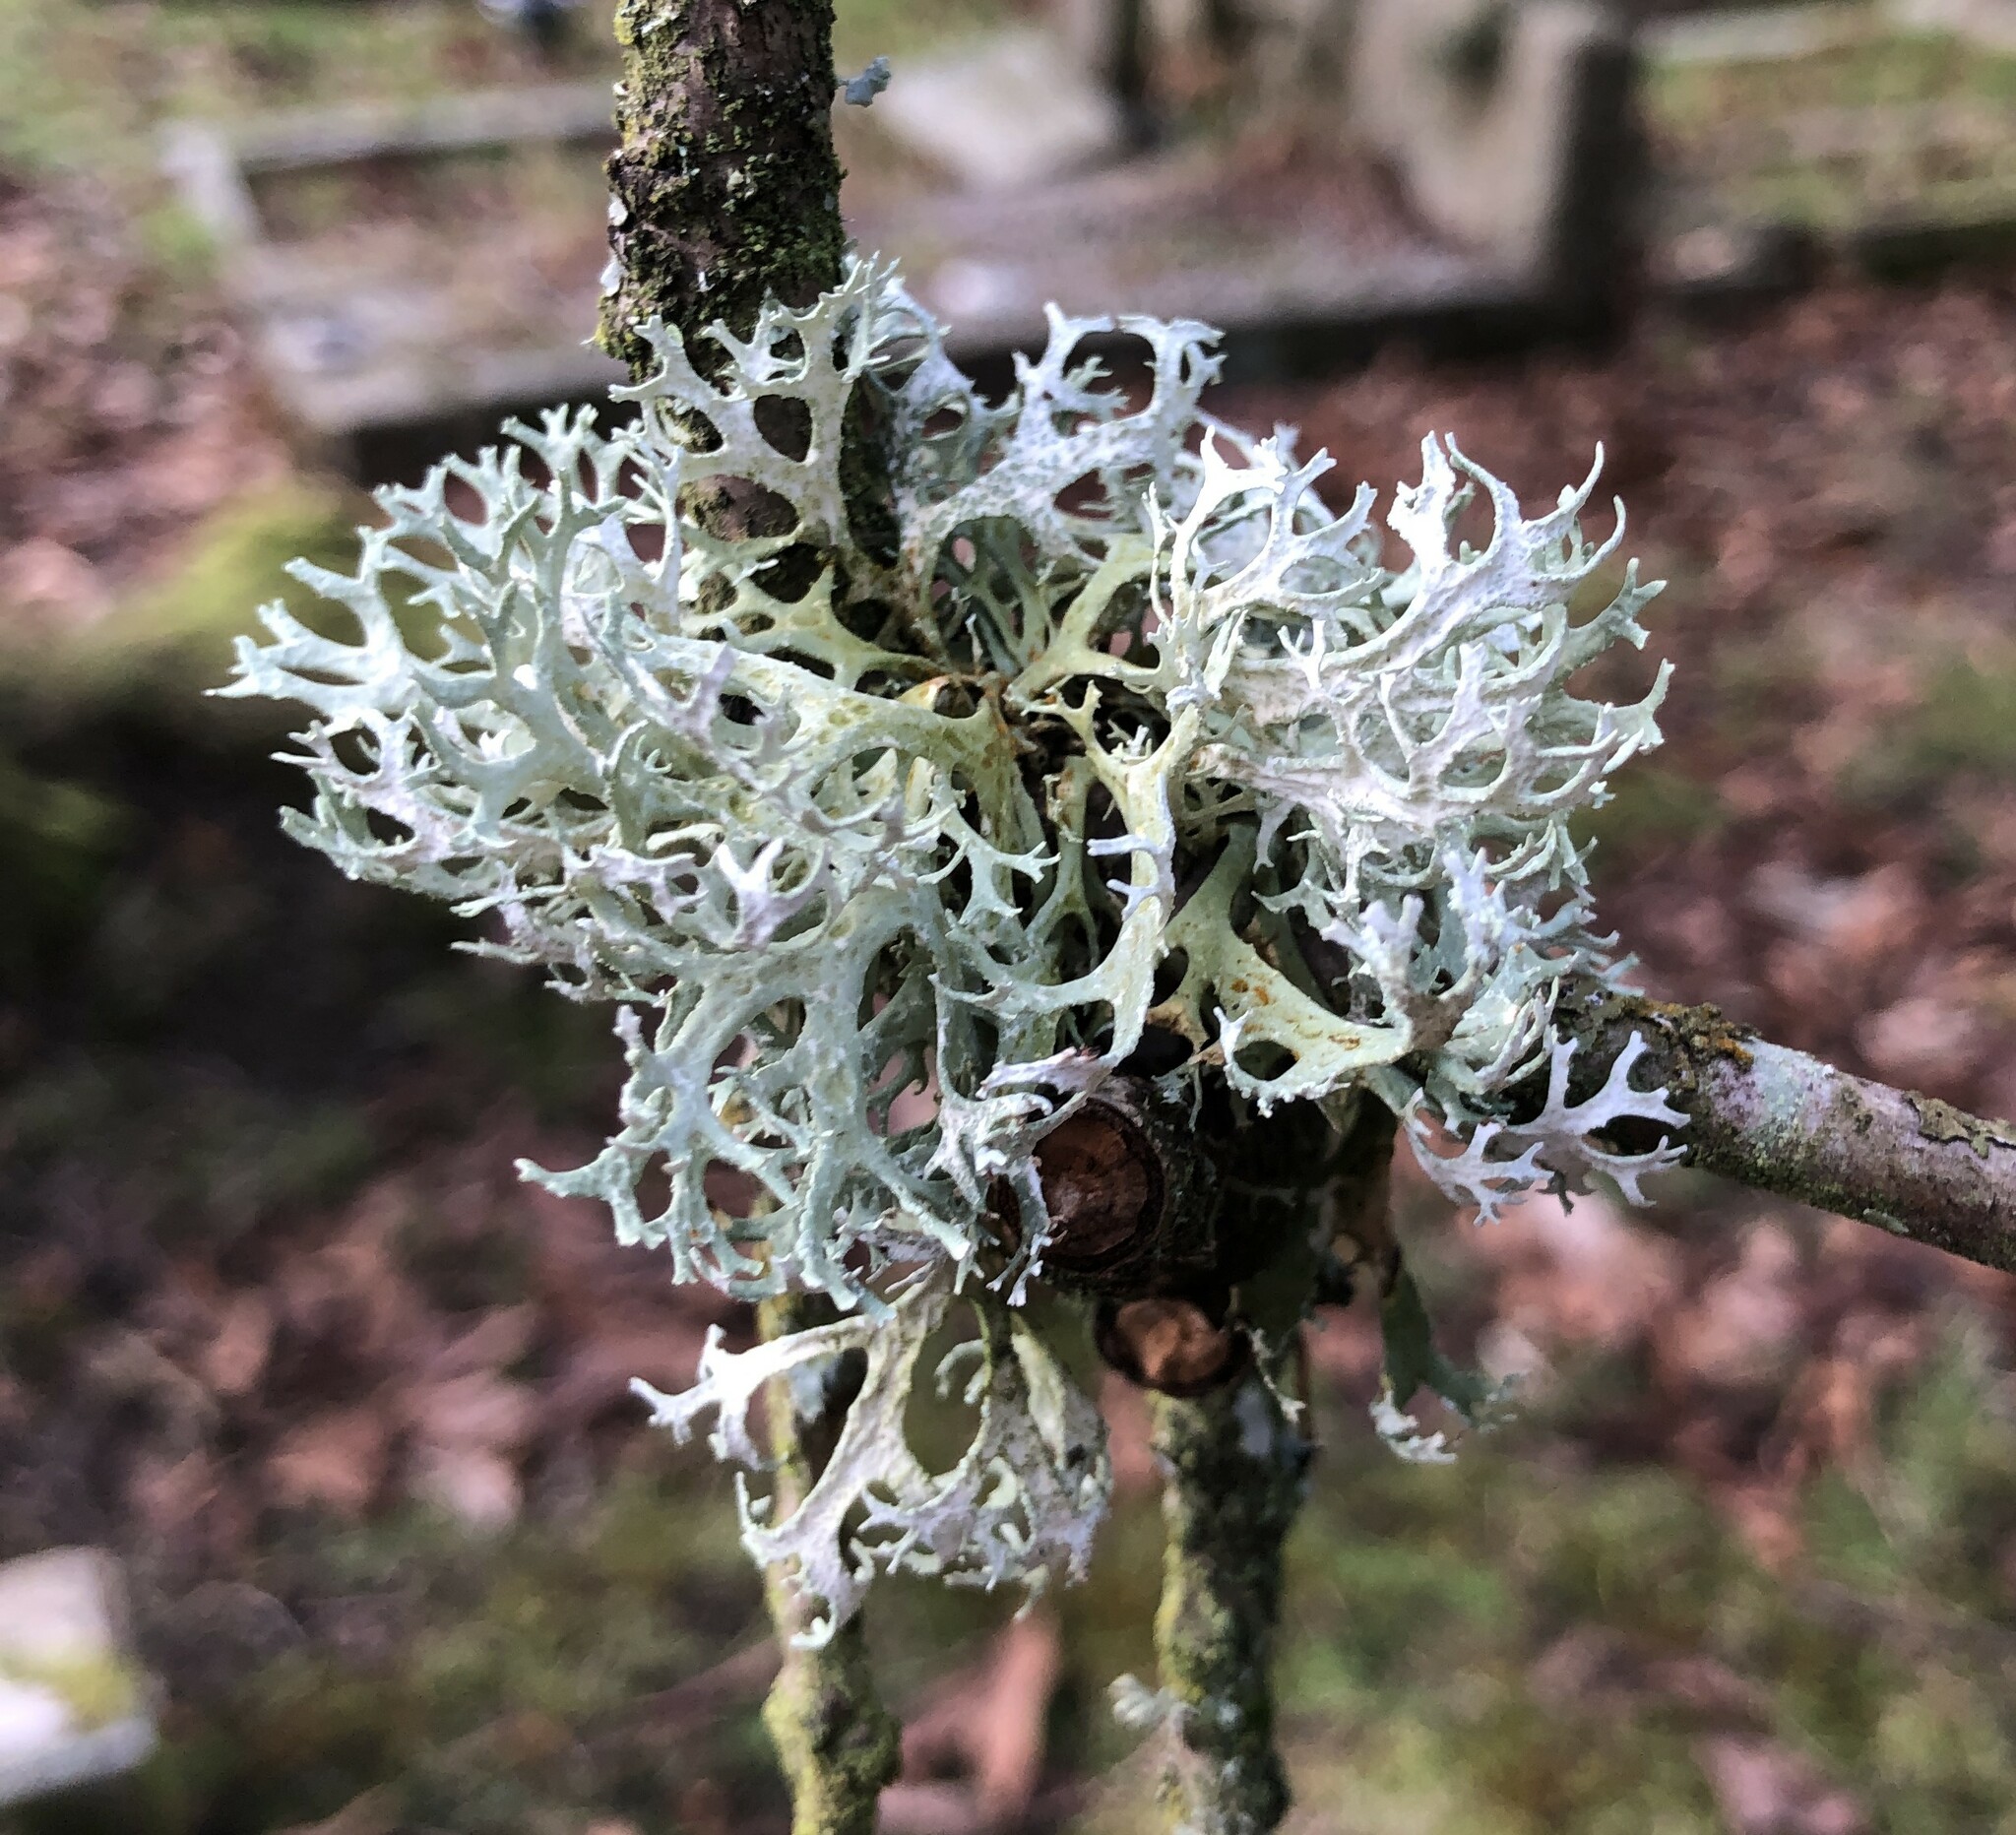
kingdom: Fungi
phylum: Ascomycota
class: Lecanoromycetes
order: Lecanorales
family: Parmeliaceae
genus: Evernia
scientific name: Evernia prunastri
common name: Oak moss
